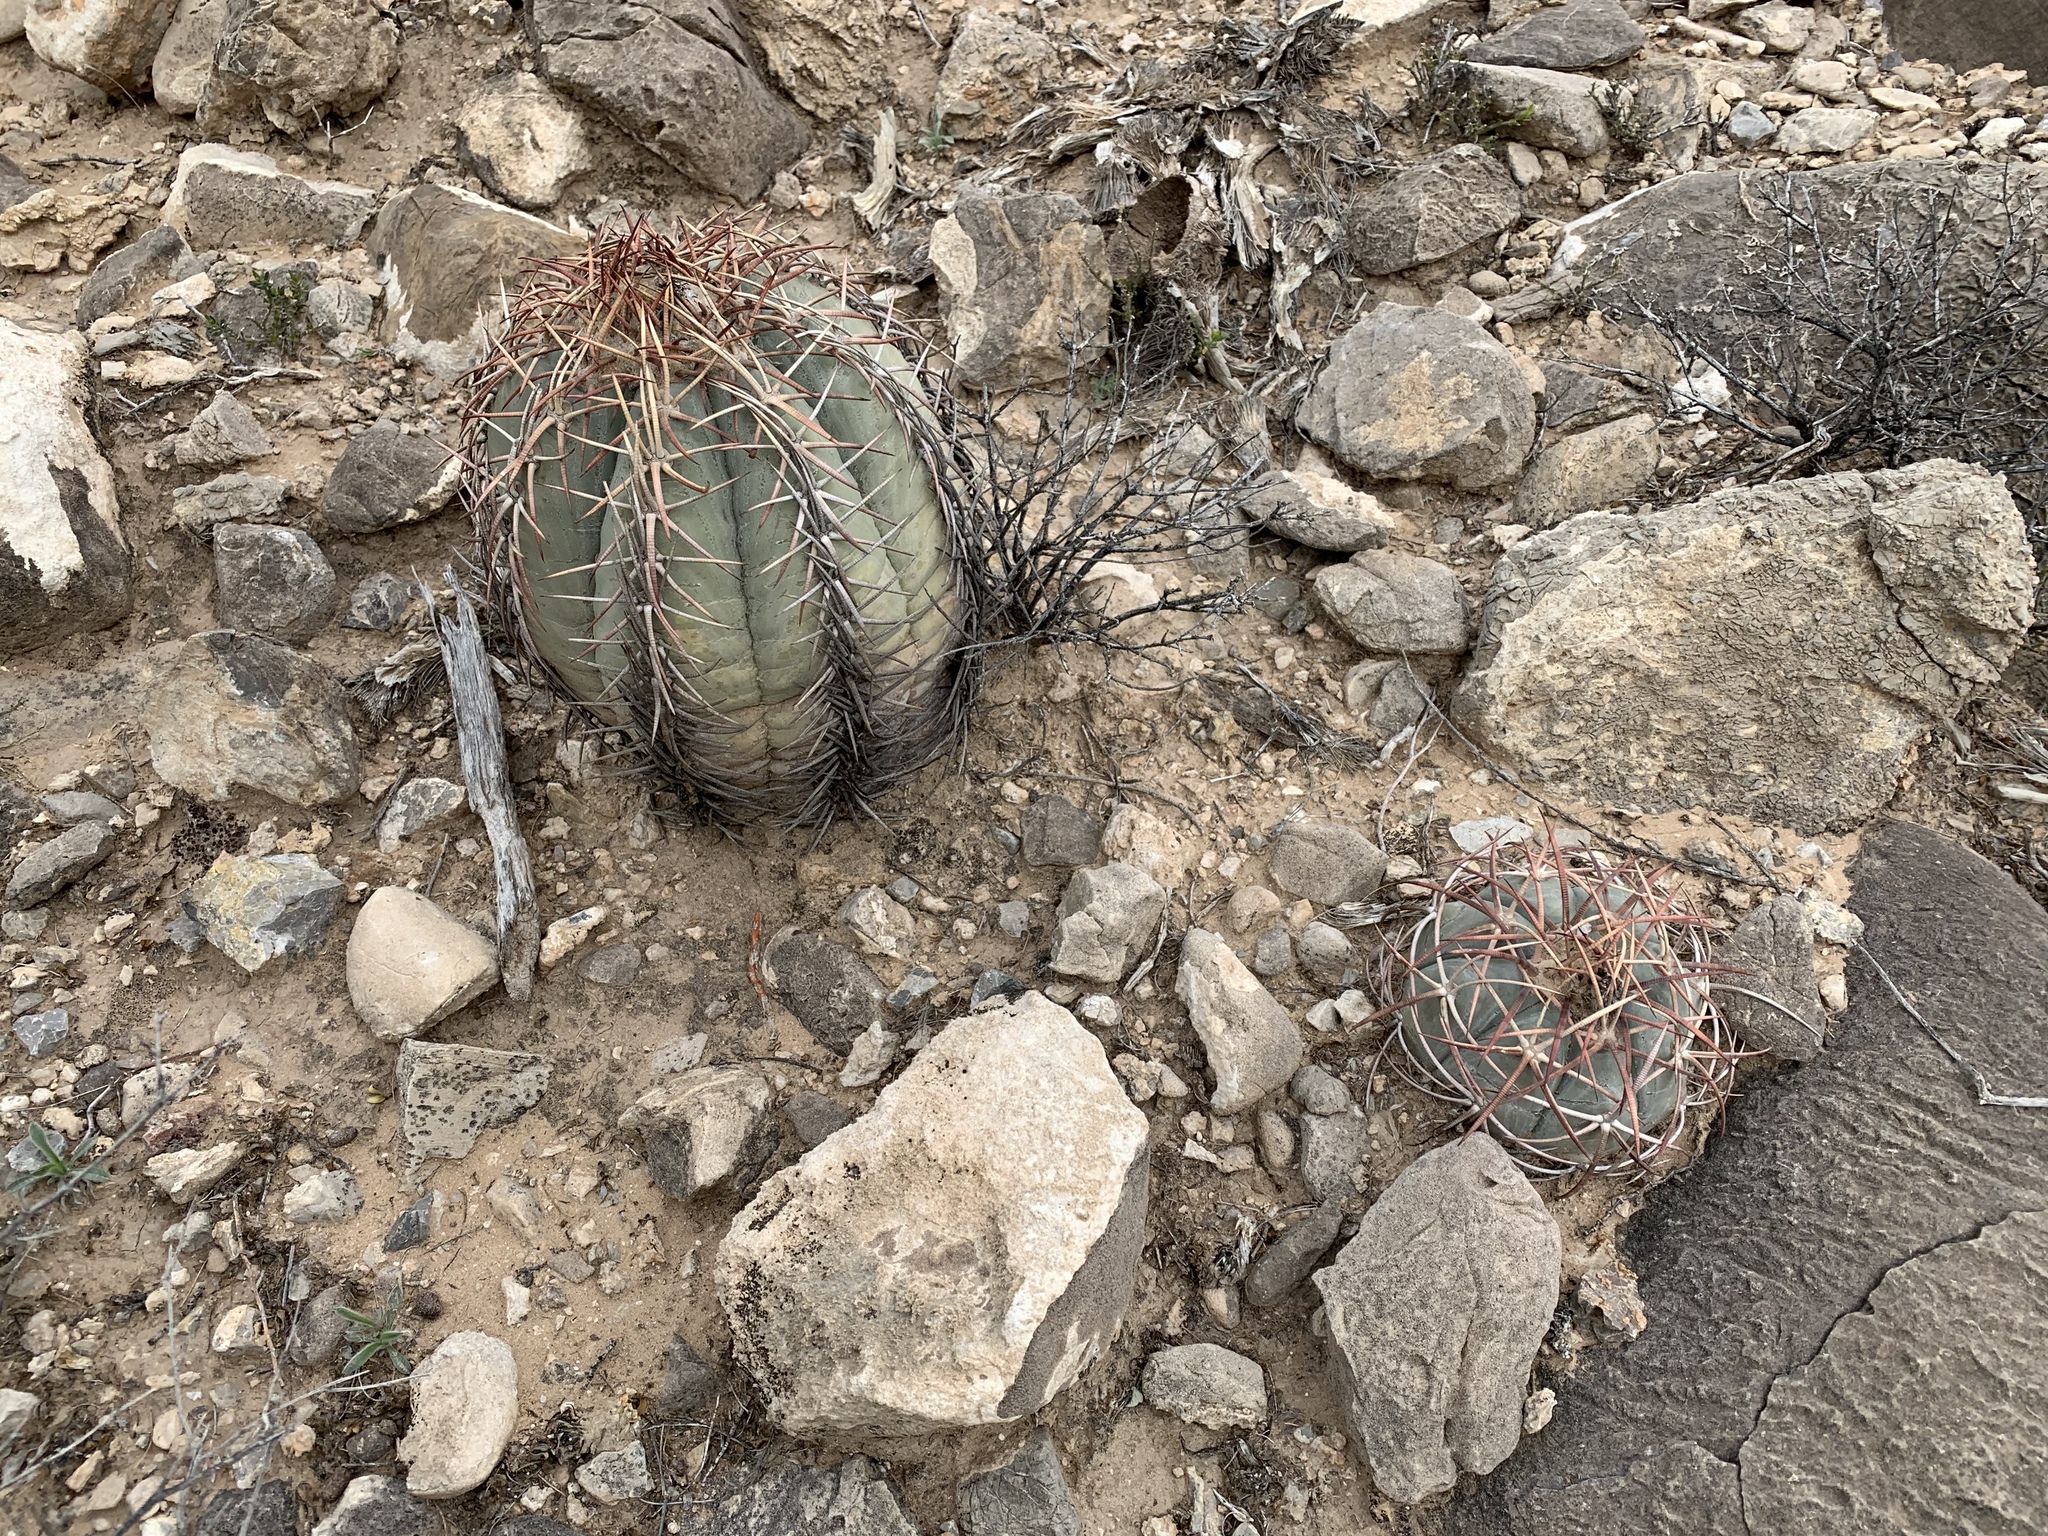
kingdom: Plantae
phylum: Tracheophyta
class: Magnoliopsida
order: Caryophyllales
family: Cactaceae
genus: Echinocactus
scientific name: Echinocactus horizonthalonius
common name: Devilshead
